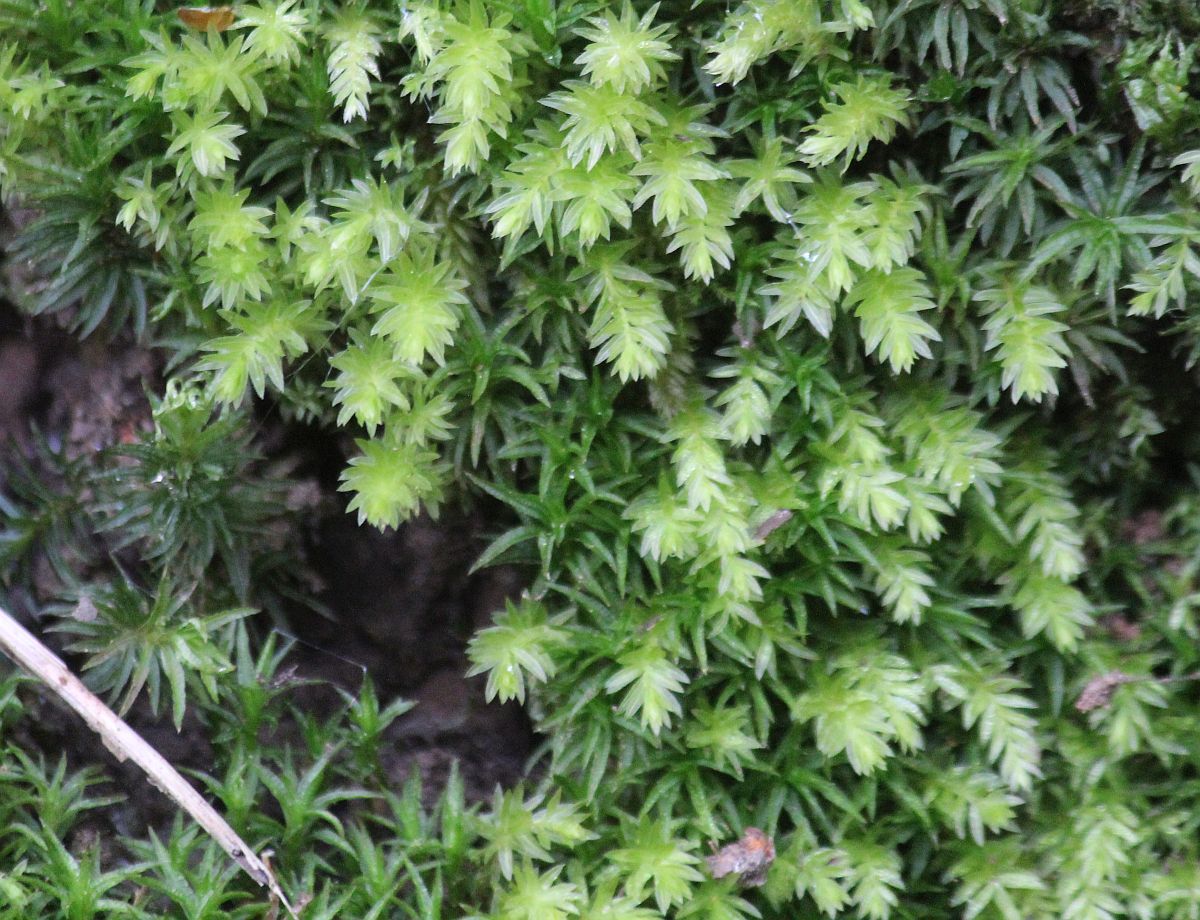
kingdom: Plantae
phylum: Bryophyta
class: Bryopsida
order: Bryales
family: Mniaceae
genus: Mnium
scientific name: Mnium hornum
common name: Swan's-neck leafy moss
